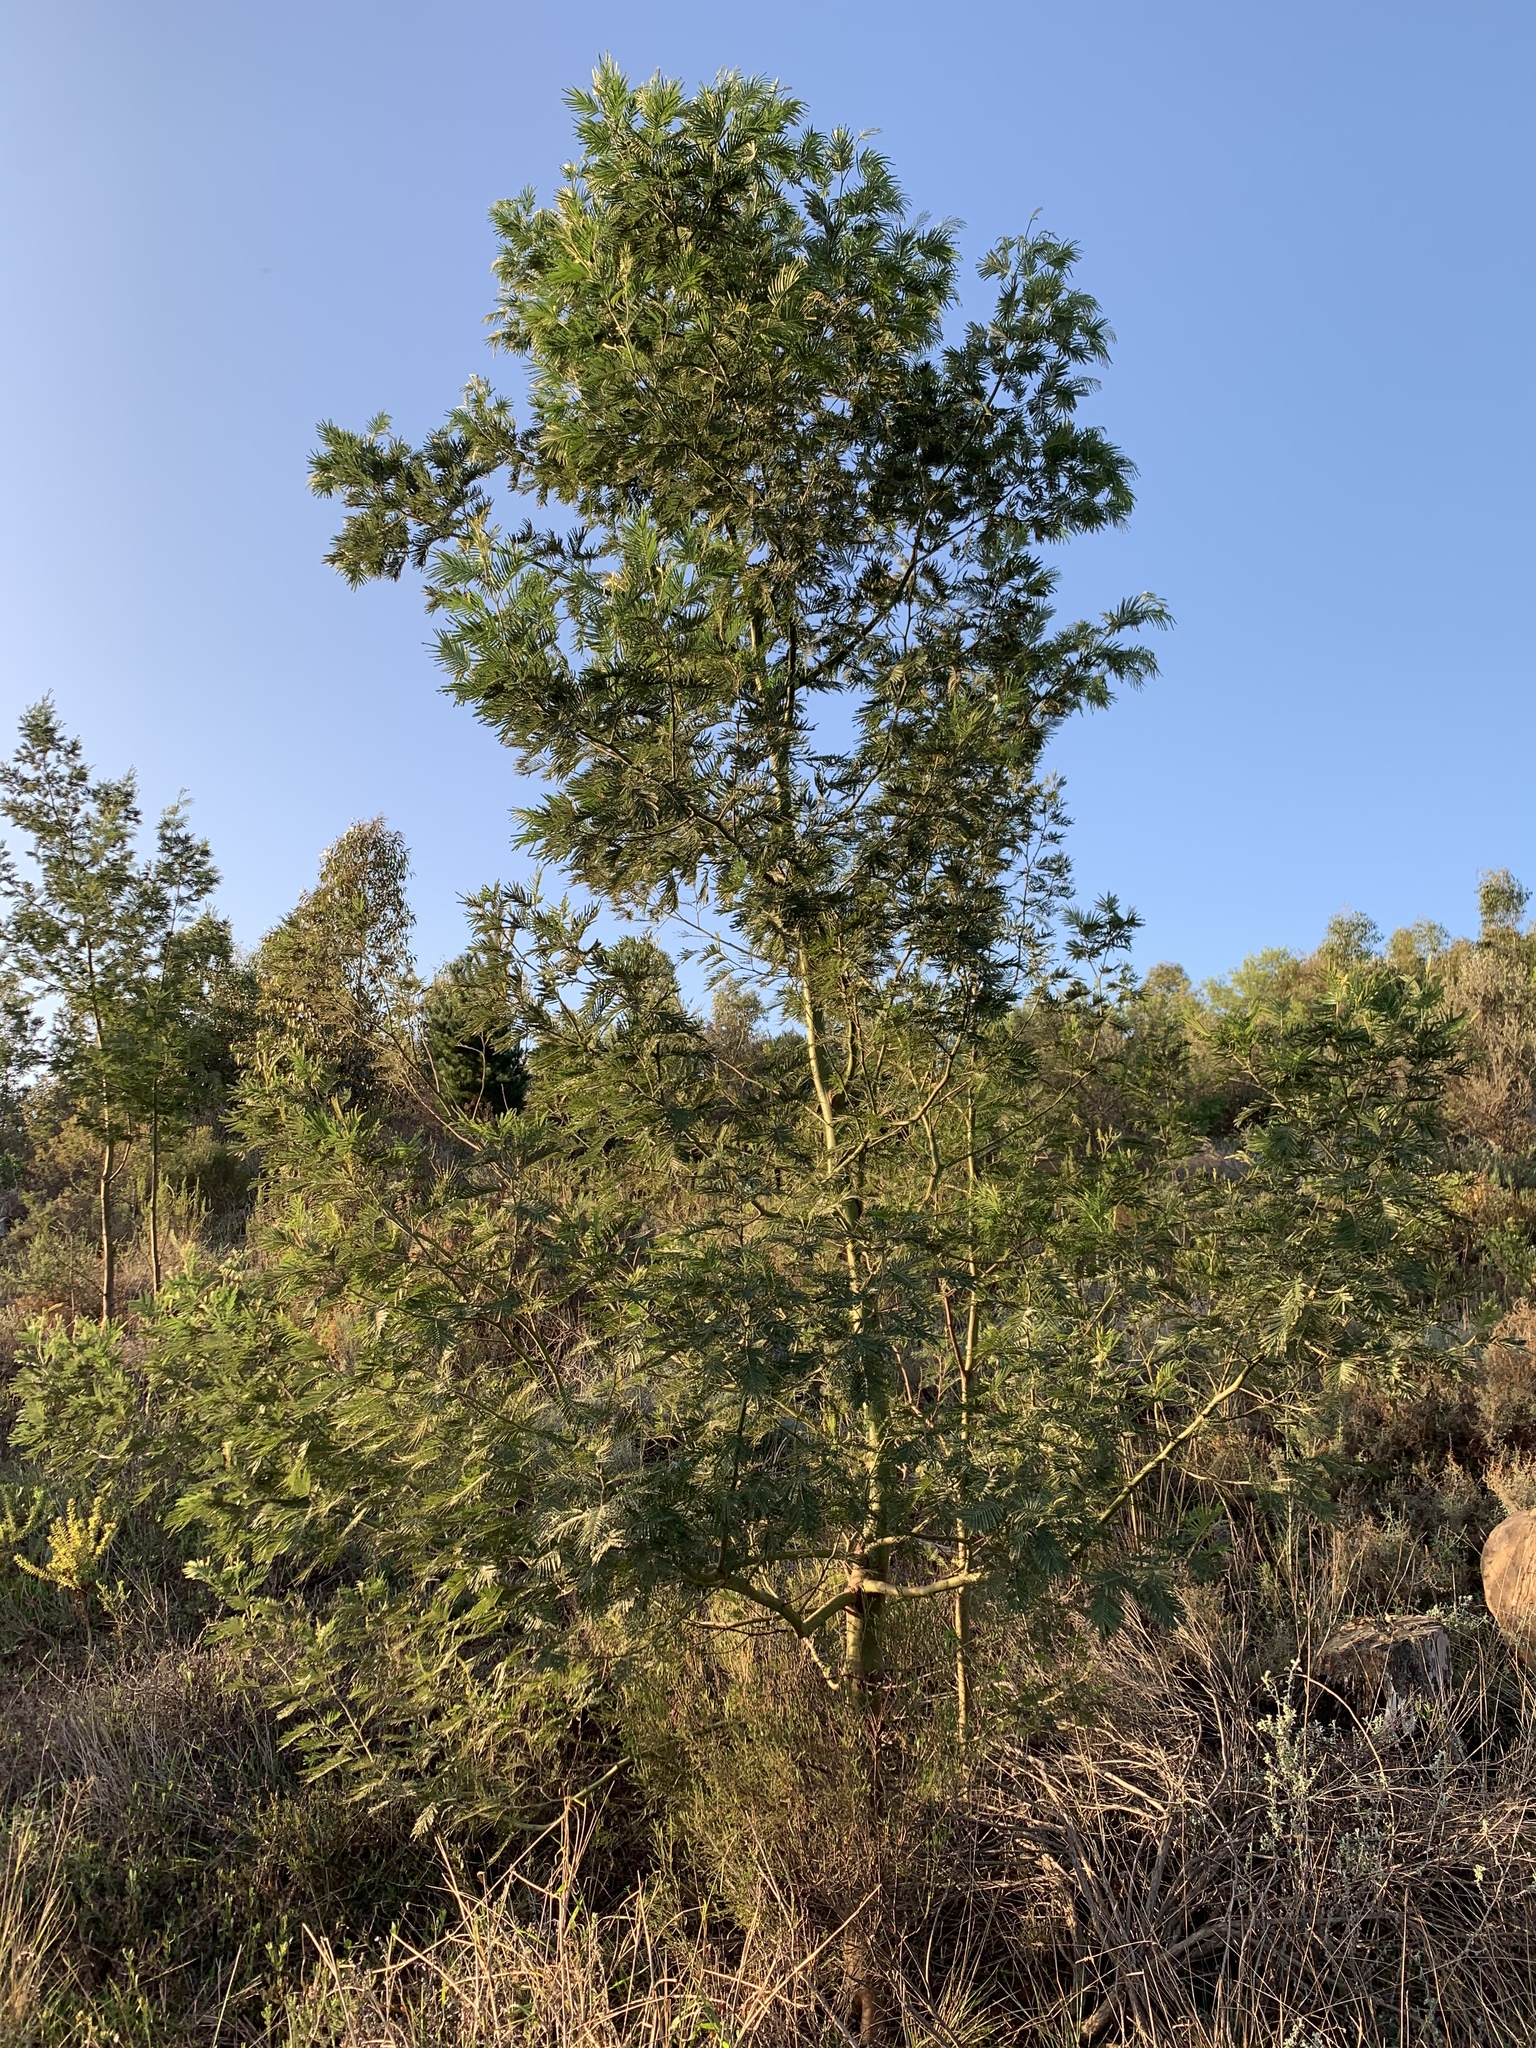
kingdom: Plantae
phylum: Tracheophyta
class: Magnoliopsida
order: Fabales
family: Fabaceae
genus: Acacia
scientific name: Acacia mearnsii
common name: Black wattle
